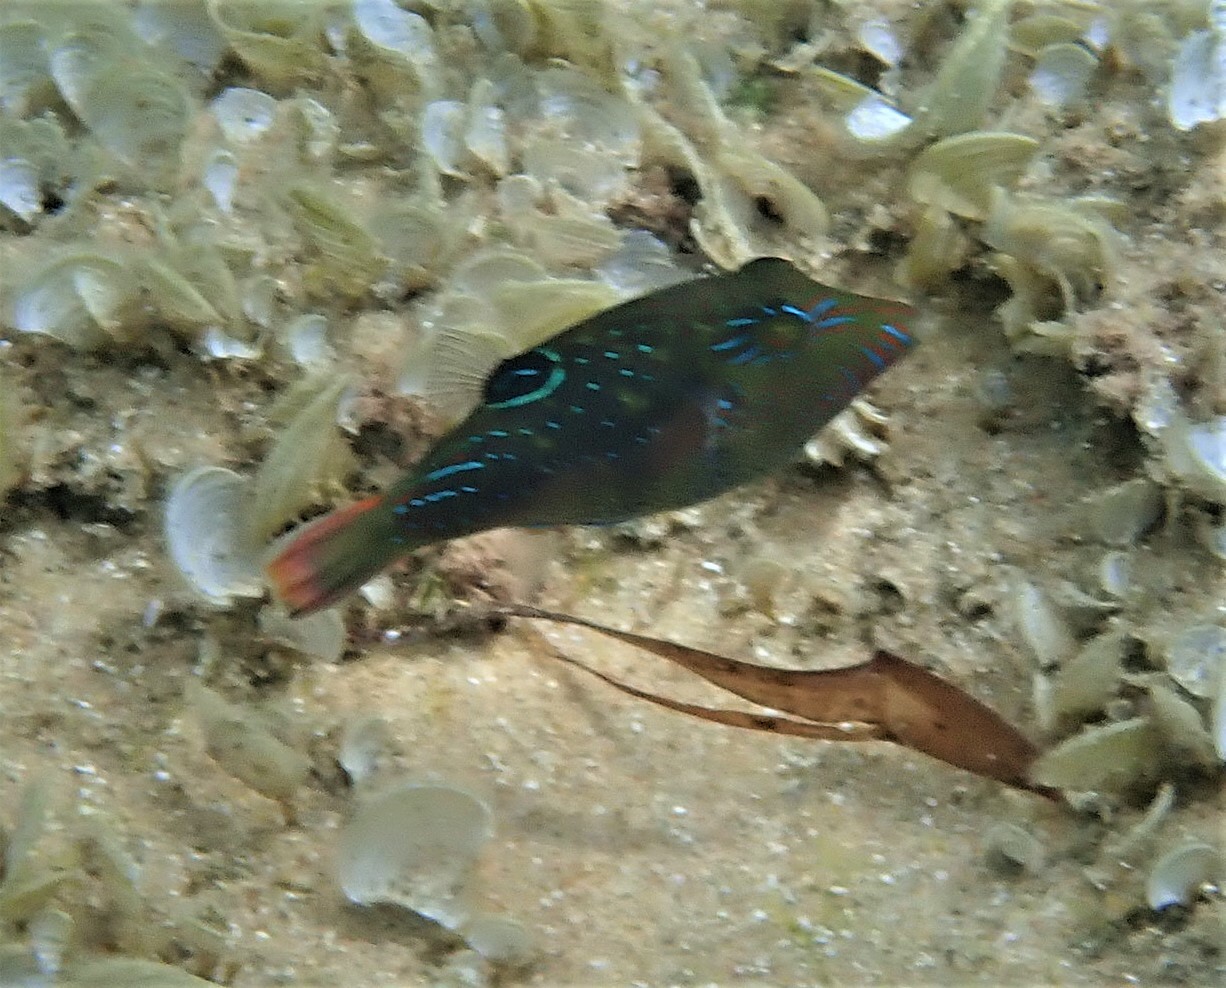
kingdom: Animalia
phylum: Chordata
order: Tetraodontiformes
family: Tetraodontidae
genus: Canthigaster
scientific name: Canthigaster bennetti
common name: Bennett's pufferfish
